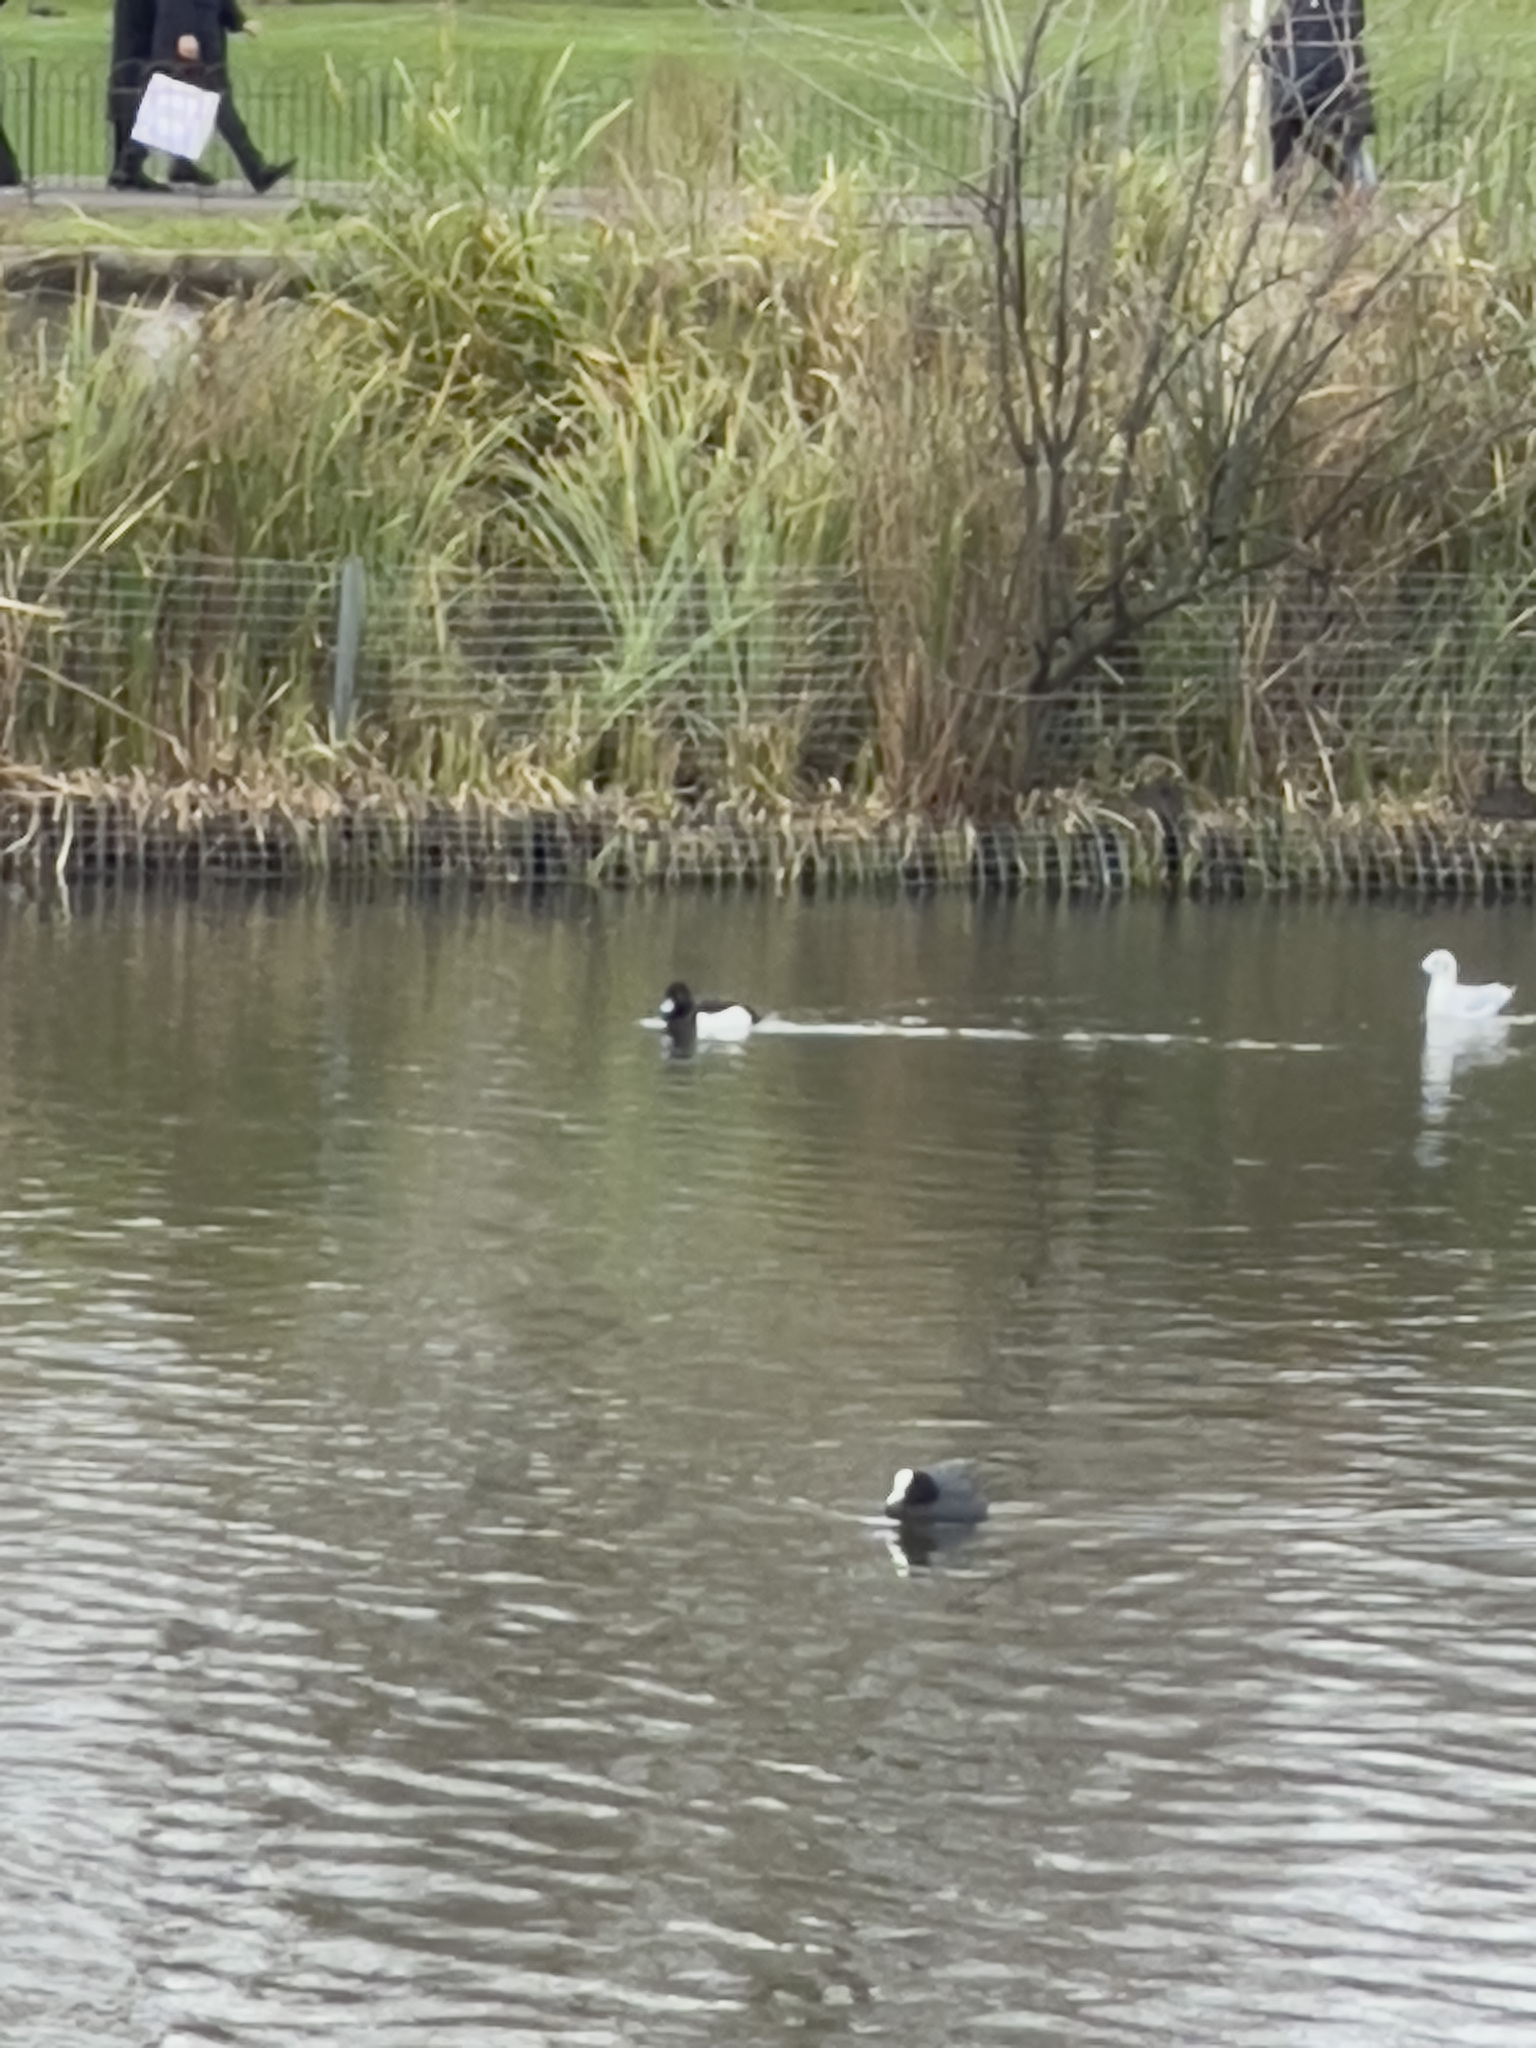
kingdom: Animalia
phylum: Chordata
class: Aves
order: Anseriformes
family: Anatidae
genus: Aythya
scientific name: Aythya fuligula
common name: Tufted duck
